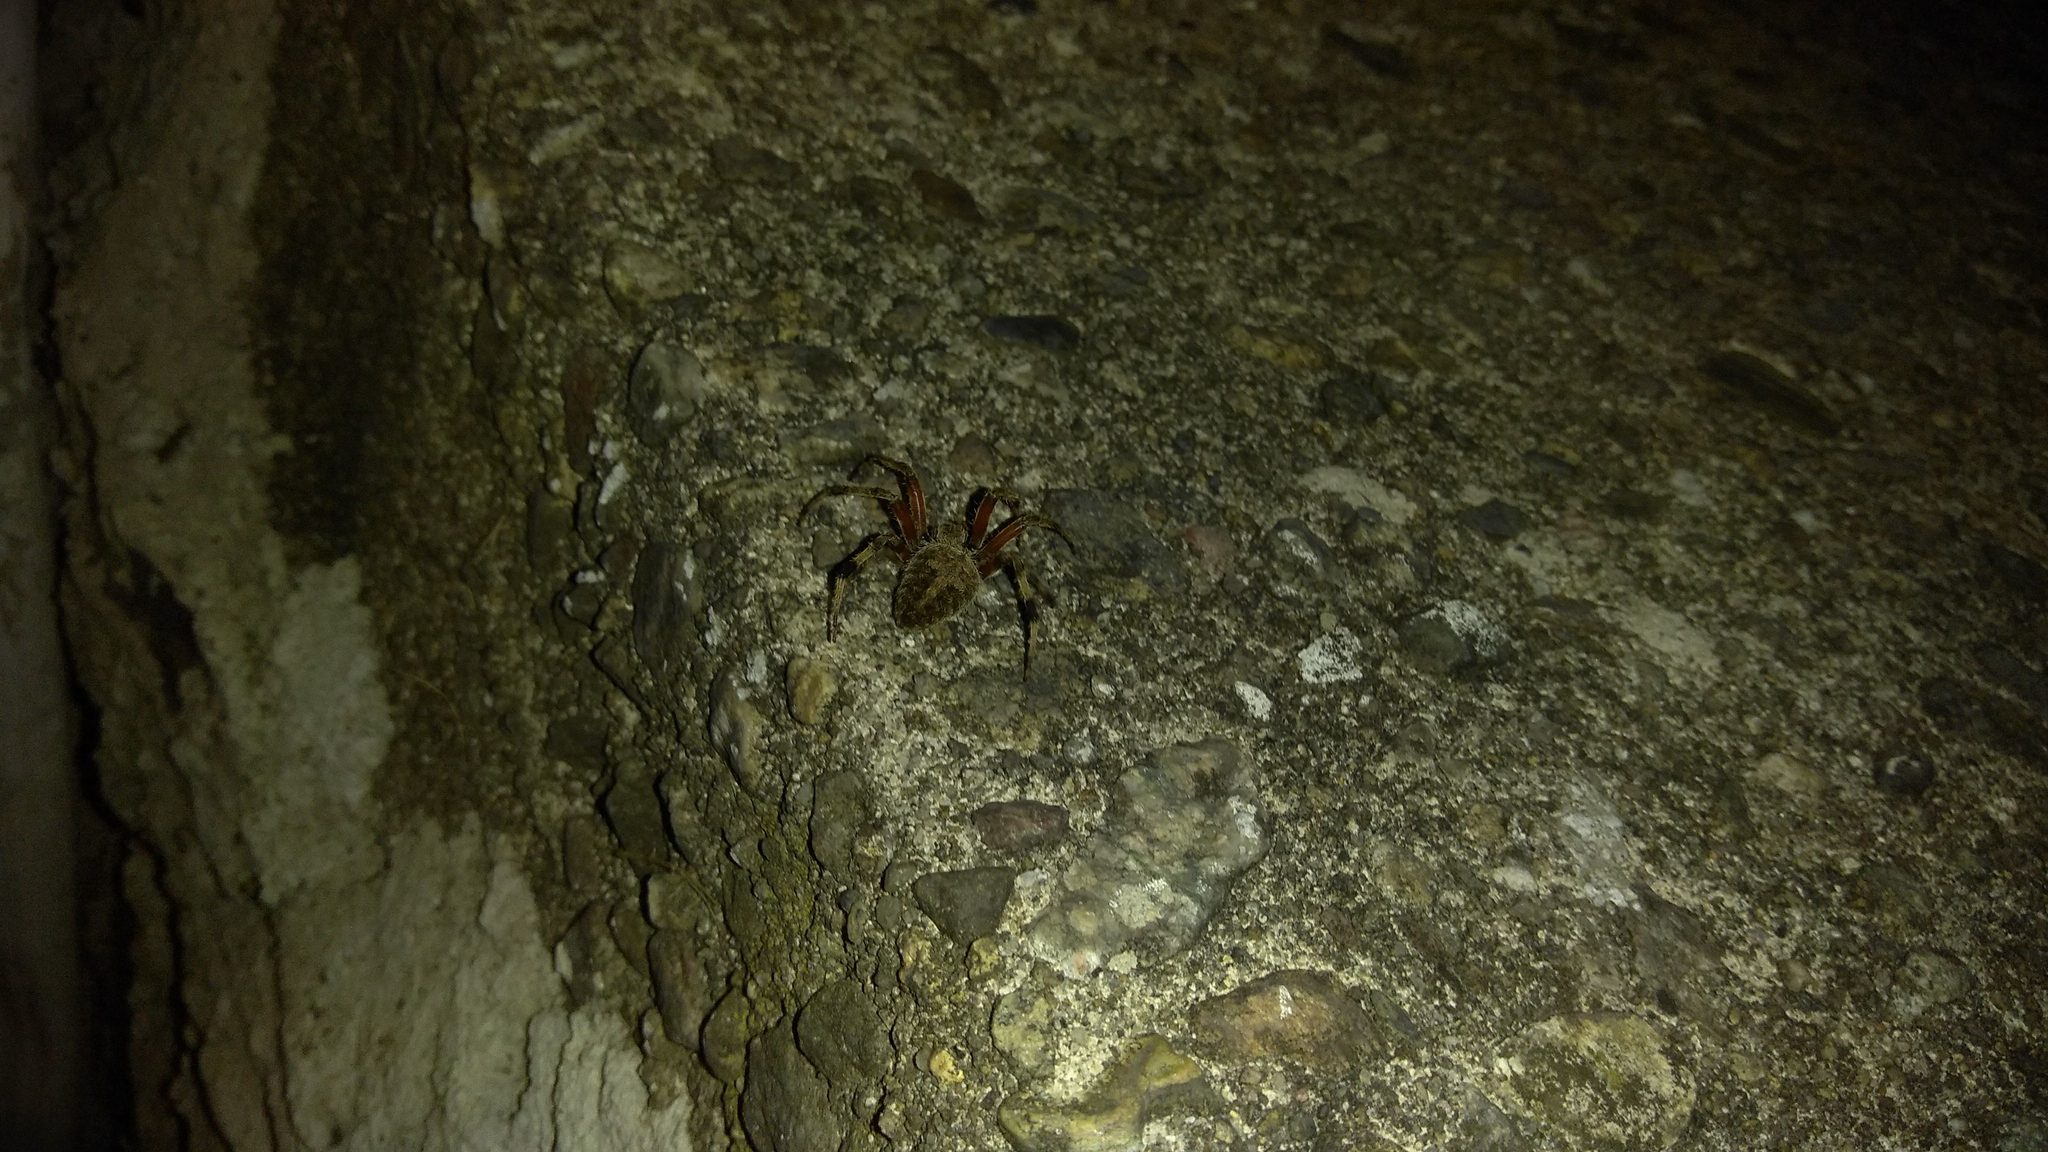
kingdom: Animalia
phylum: Arthropoda
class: Arachnida
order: Araneae
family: Araneidae
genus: Neoscona
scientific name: Neoscona crucifera
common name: Spotted orbweaver
